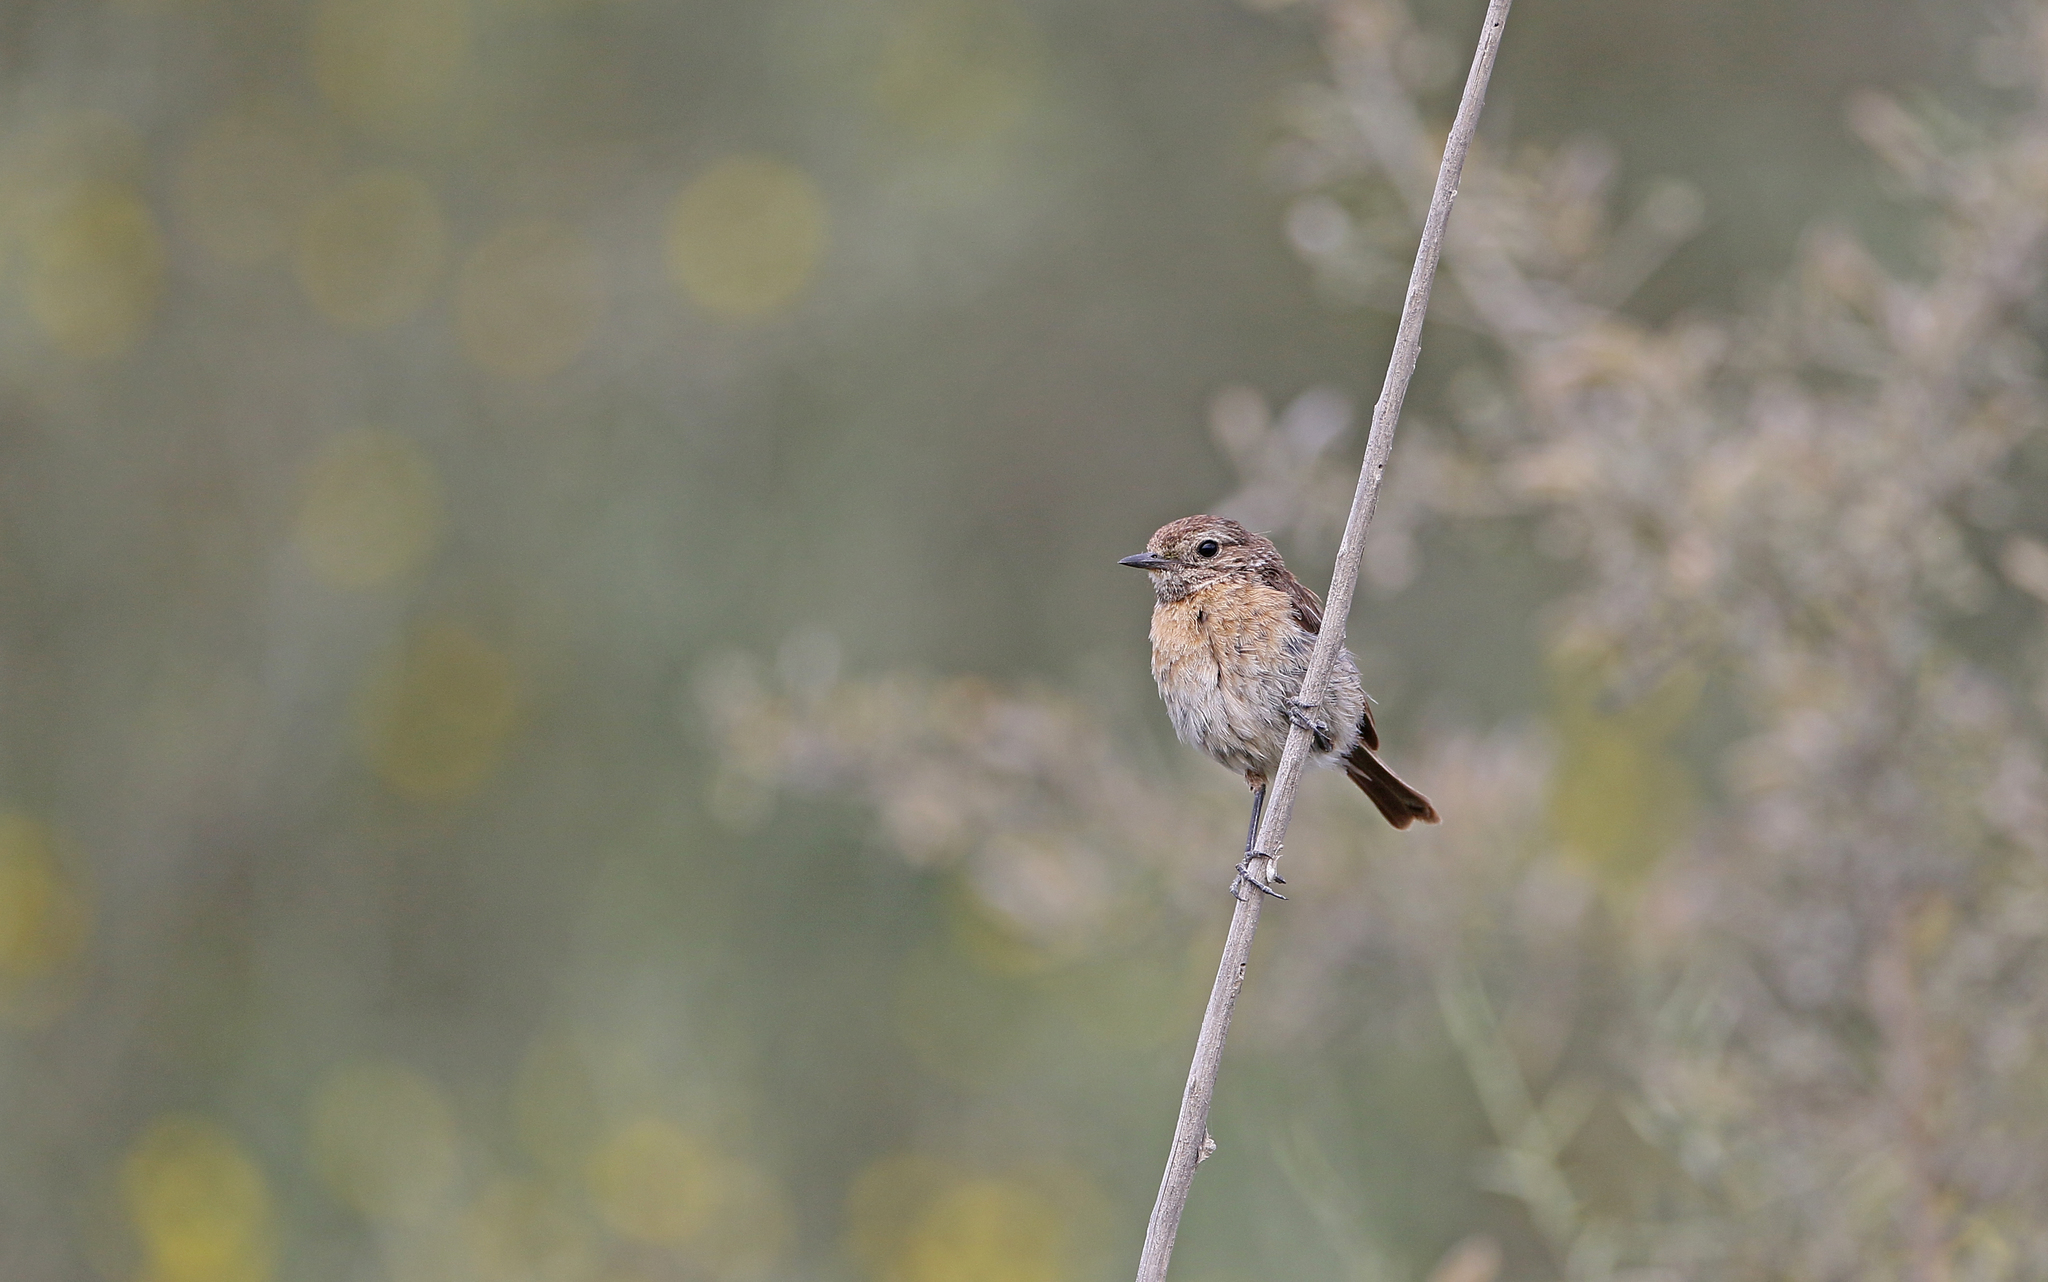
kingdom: Animalia
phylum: Chordata
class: Aves
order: Passeriformes
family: Muscicapidae
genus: Saxicola
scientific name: Saxicola rubicola
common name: European stonechat
